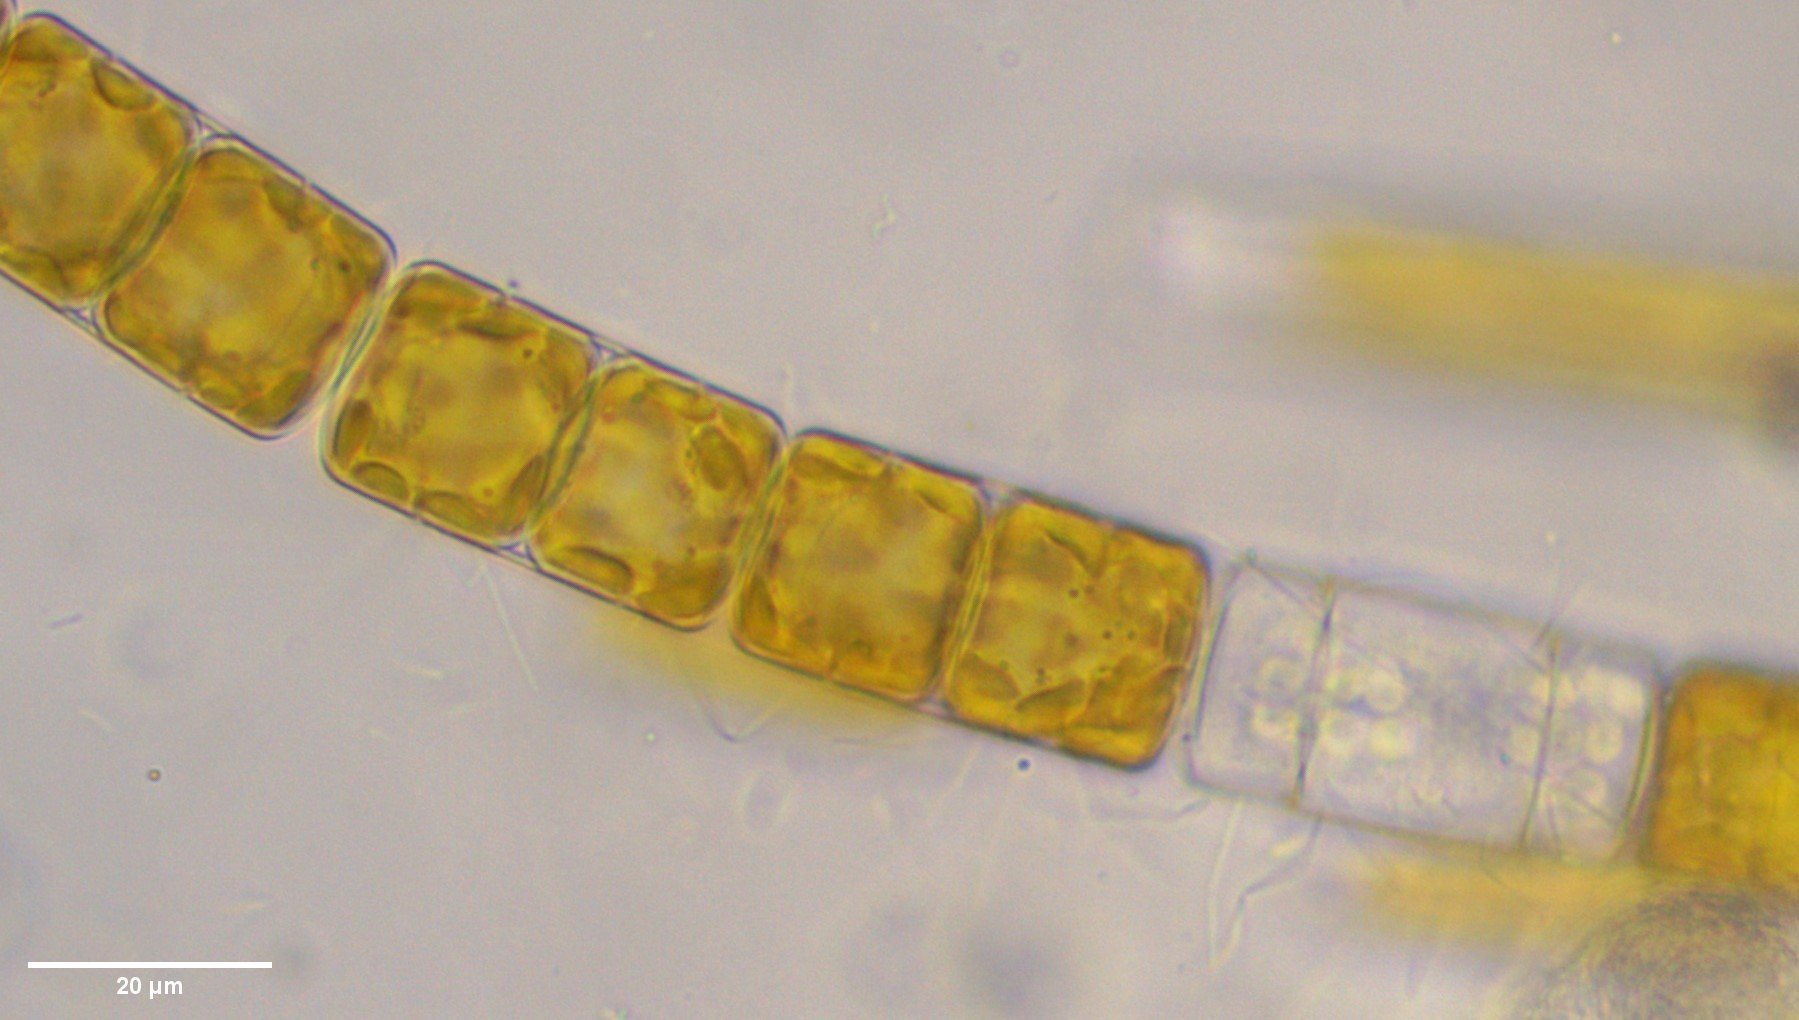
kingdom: Chromista
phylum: Ochrophyta
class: Bacillariophyceae
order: Melosirales
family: Melosiraceae
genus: Melosira
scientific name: Melosira varians
